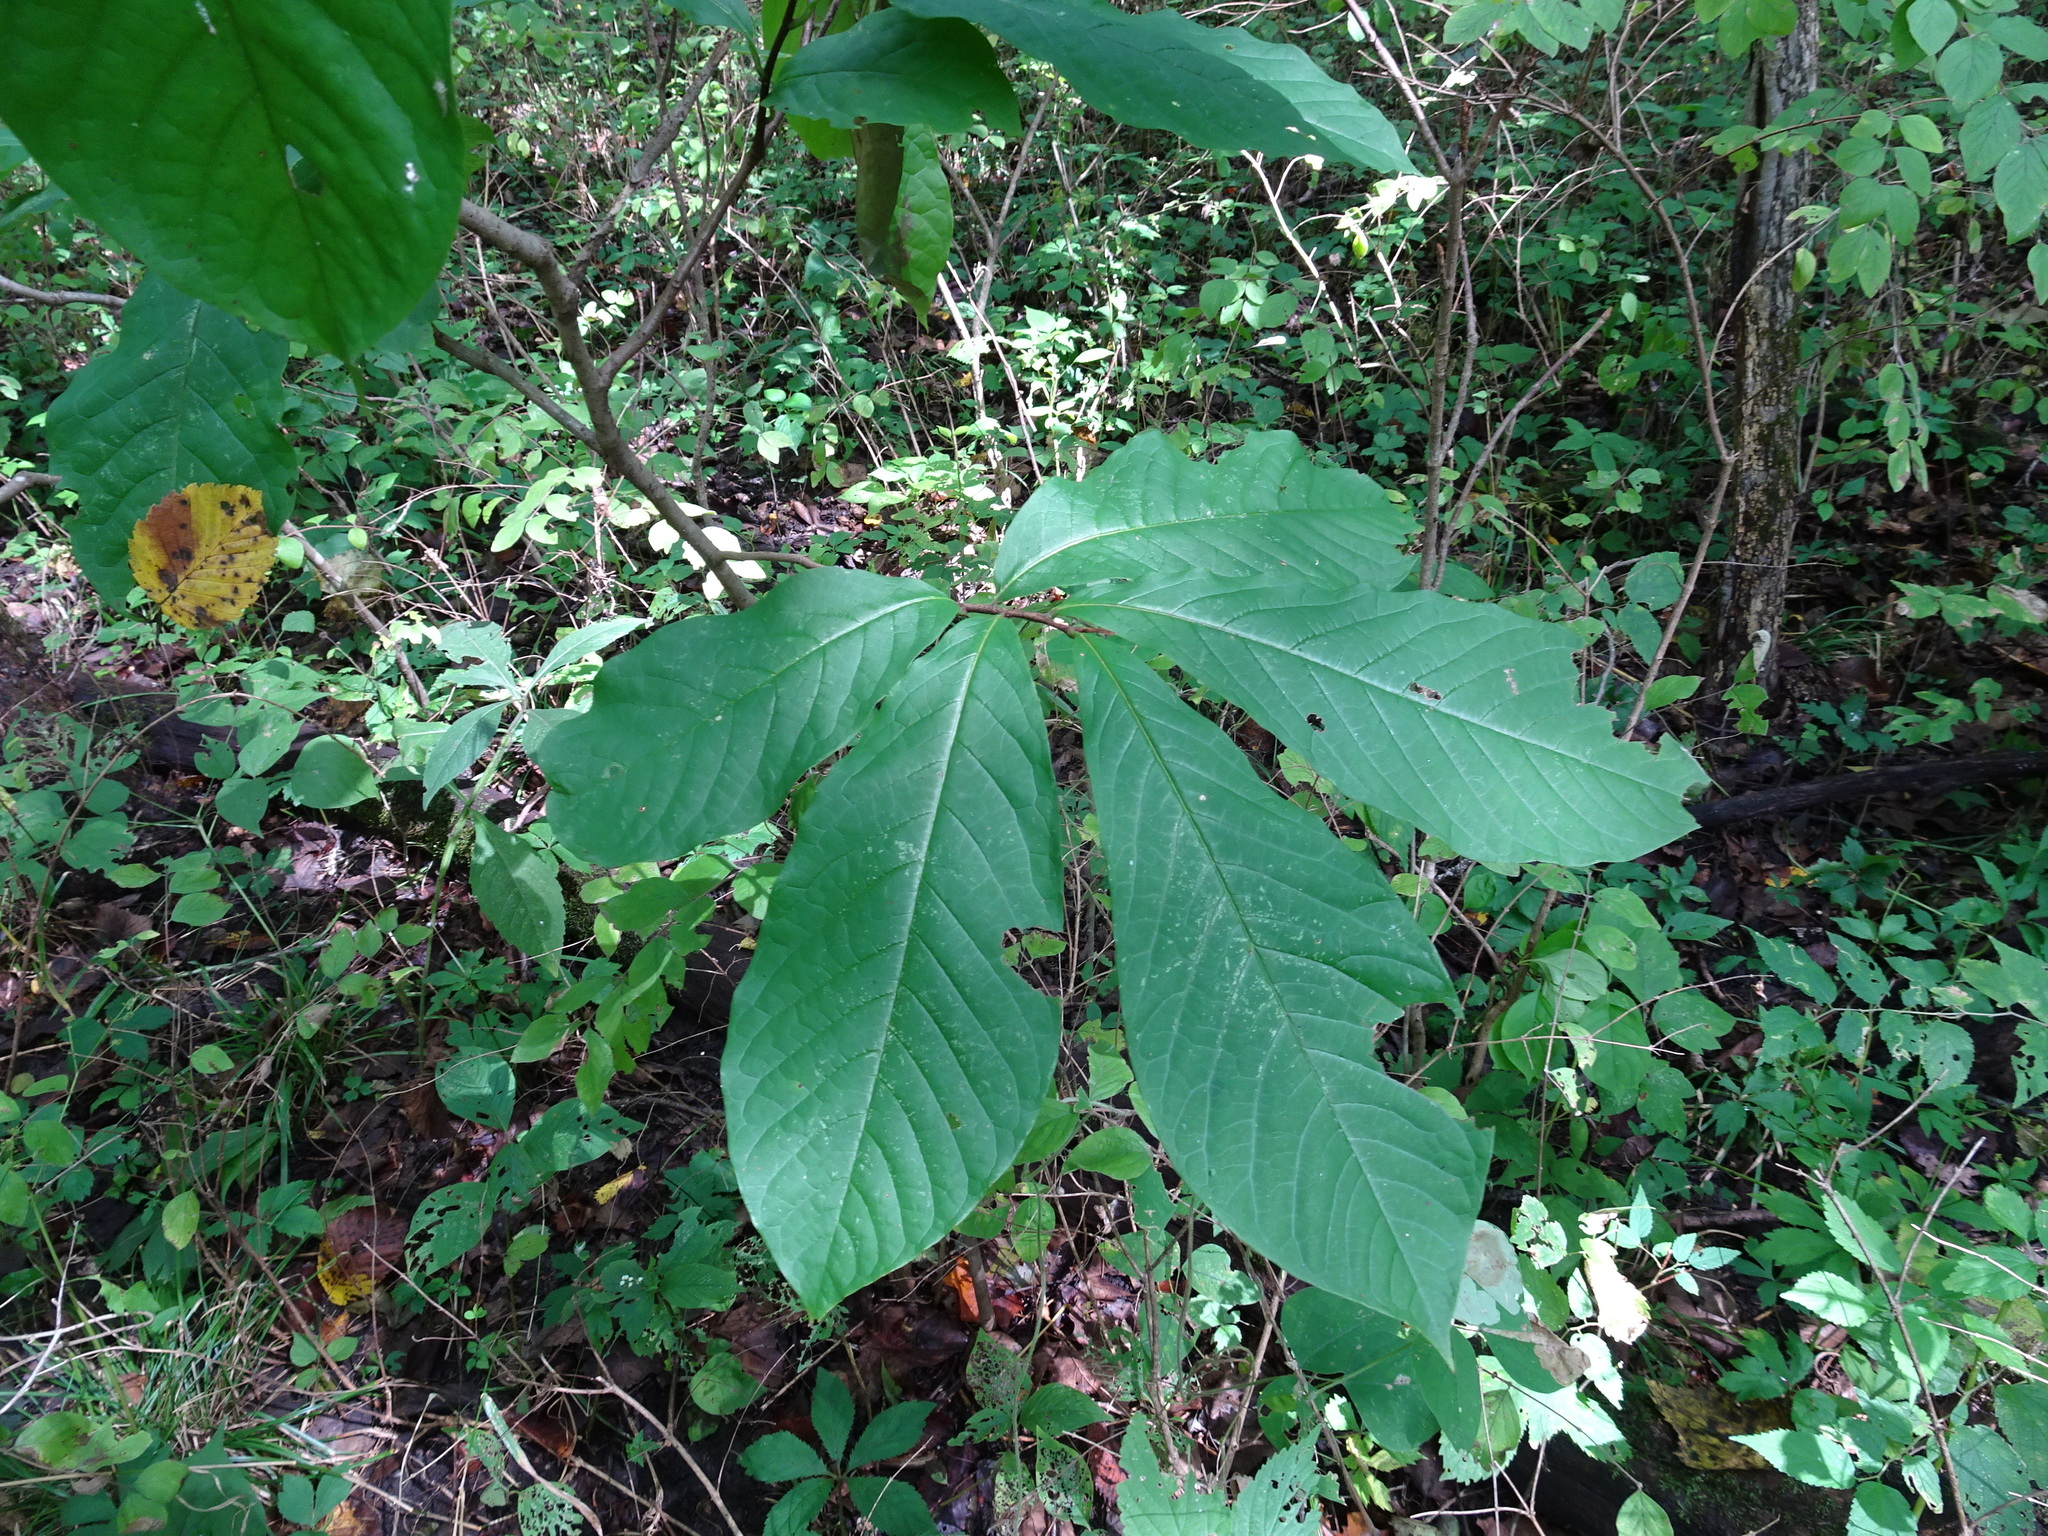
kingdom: Plantae
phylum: Tracheophyta
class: Magnoliopsida
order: Magnoliales
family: Annonaceae
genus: Asimina
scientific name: Asimina triloba
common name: Dog-banana
